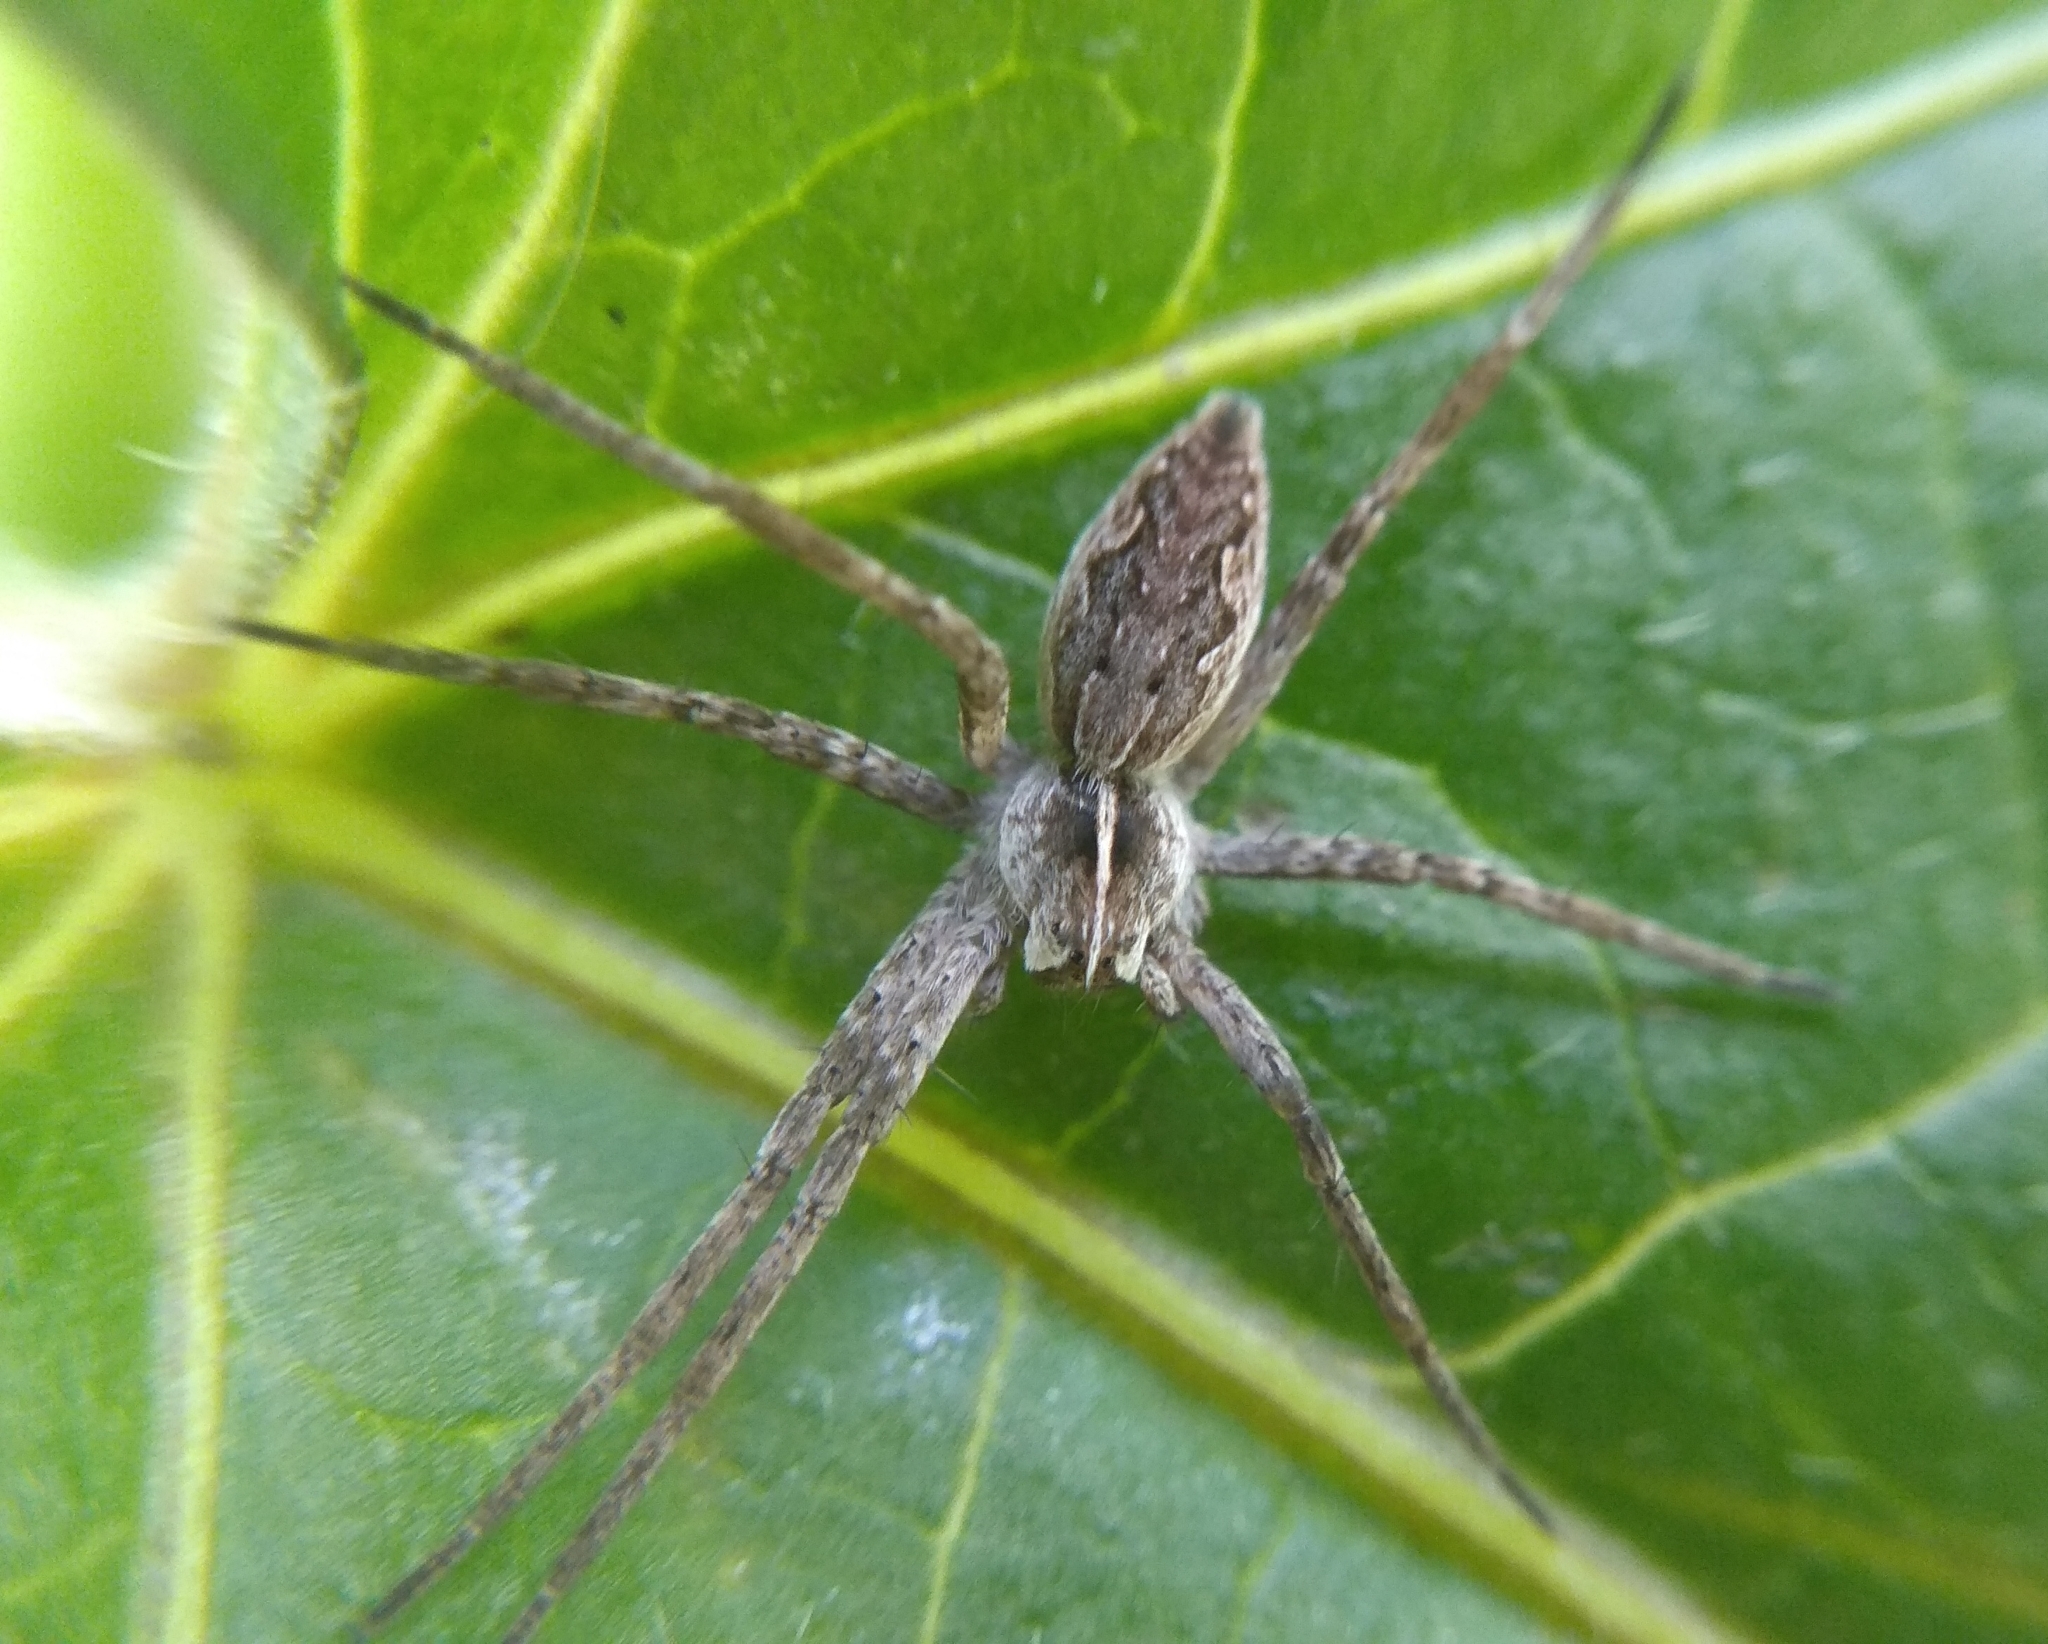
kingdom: Animalia
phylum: Arthropoda
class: Arachnida
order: Araneae
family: Pisauridae
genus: Pisaura
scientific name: Pisaura mirabilis
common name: Tent spider
